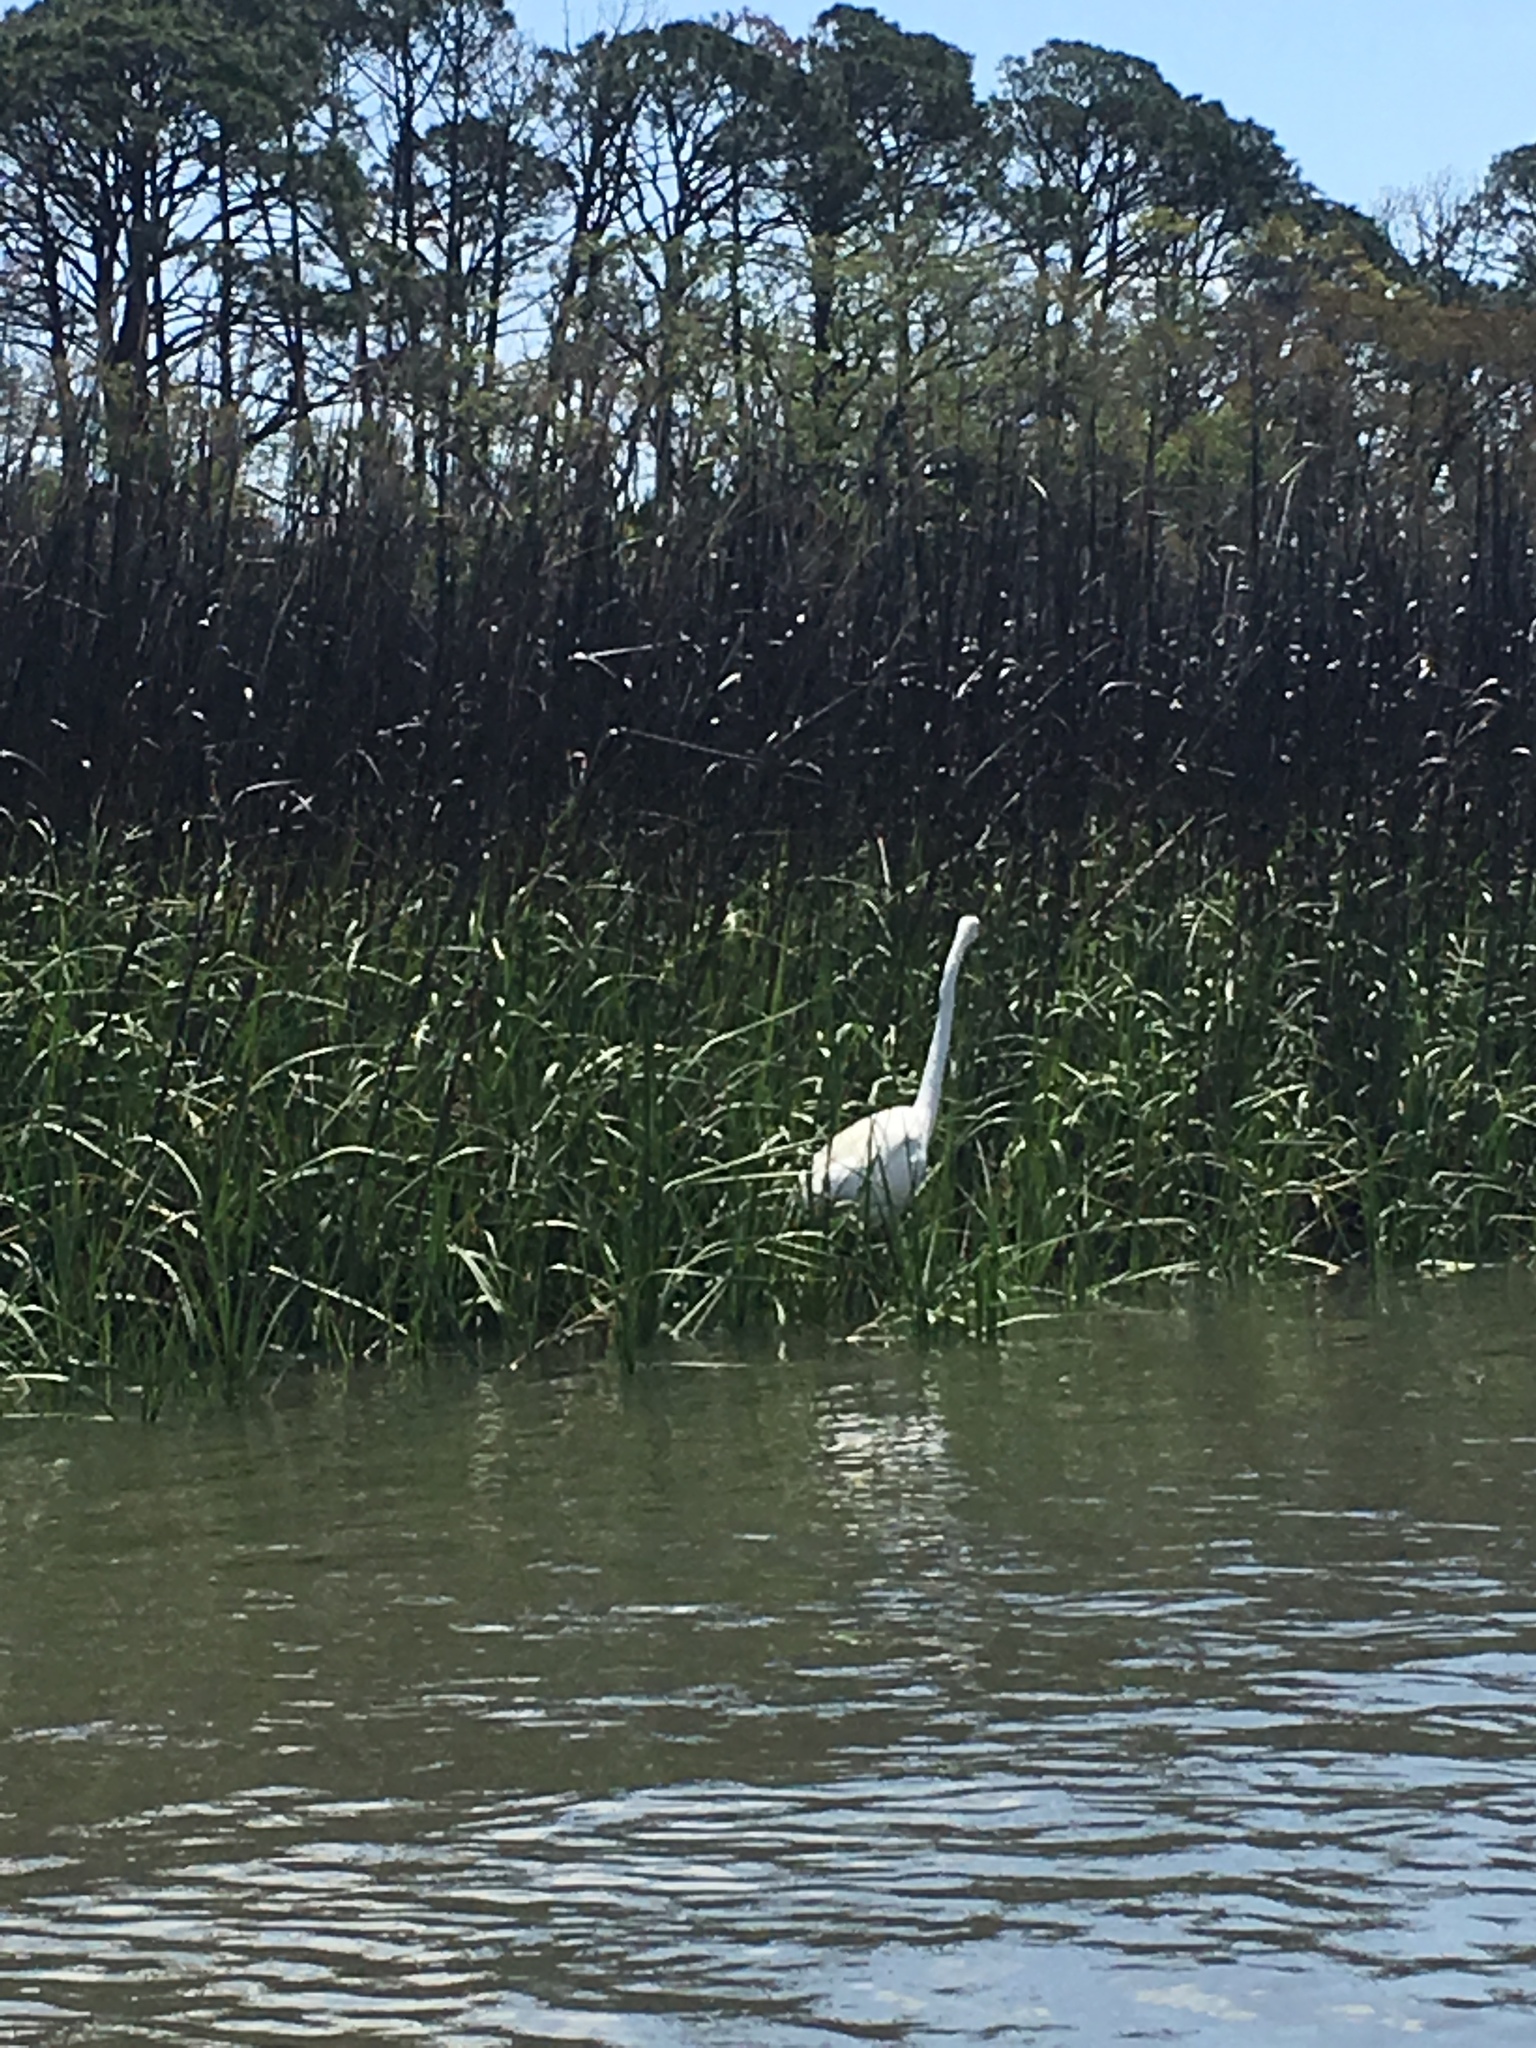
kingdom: Animalia
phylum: Chordata
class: Aves
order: Pelecaniformes
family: Ardeidae
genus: Ardea
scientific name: Ardea alba
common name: Great egret
